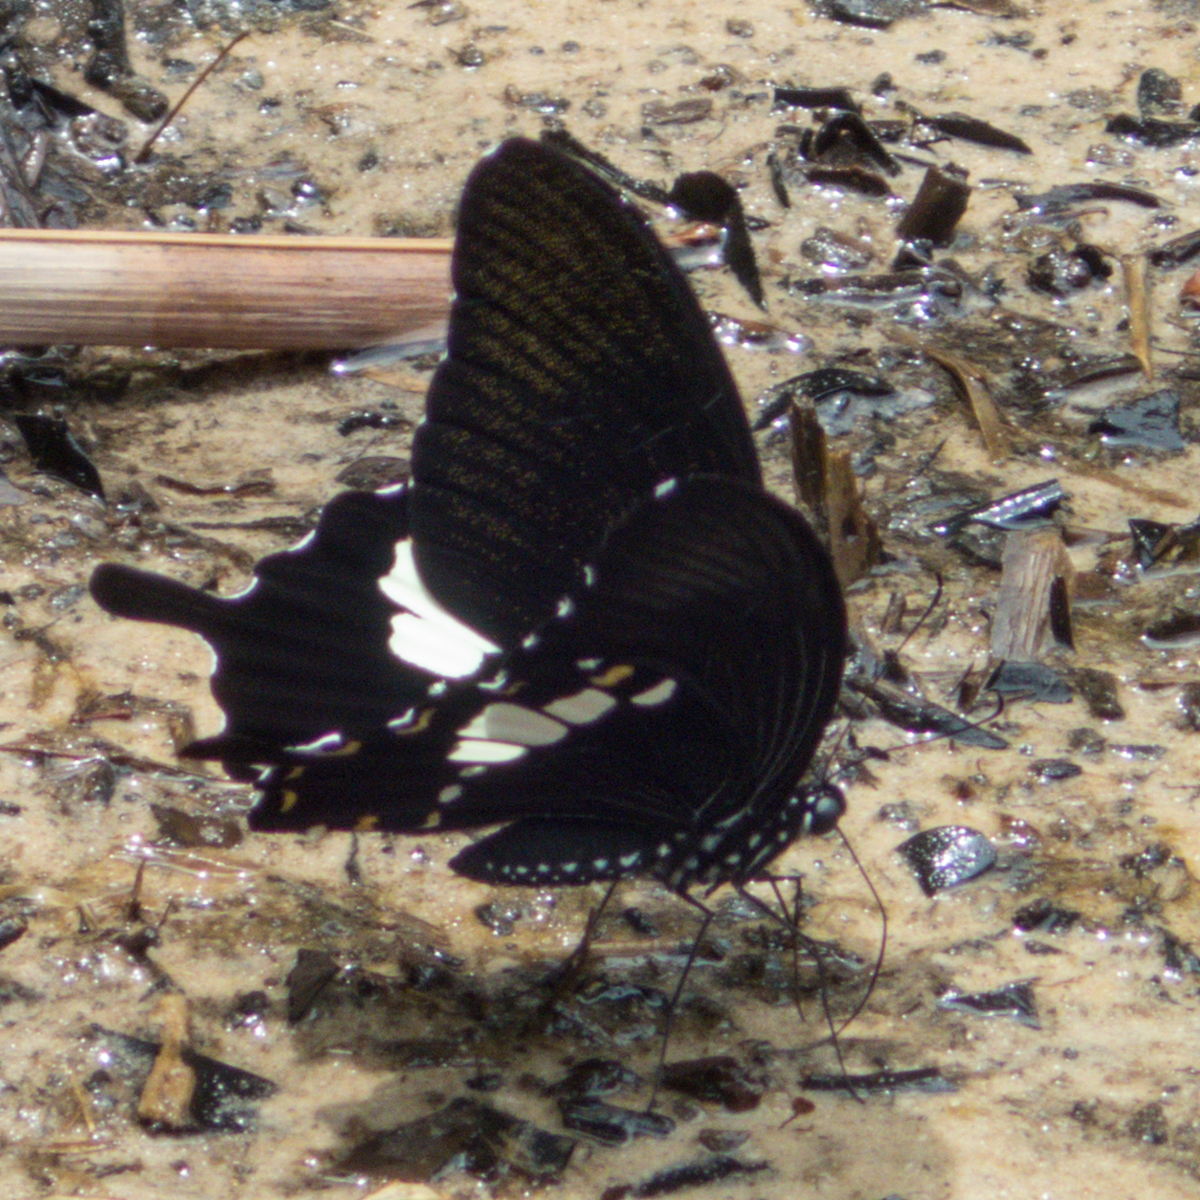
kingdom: Animalia
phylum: Arthropoda
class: Insecta
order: Lepidoptera
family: Papilionidae
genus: Atrophaneura
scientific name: Atrophaneura varuna
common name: Common batwing
